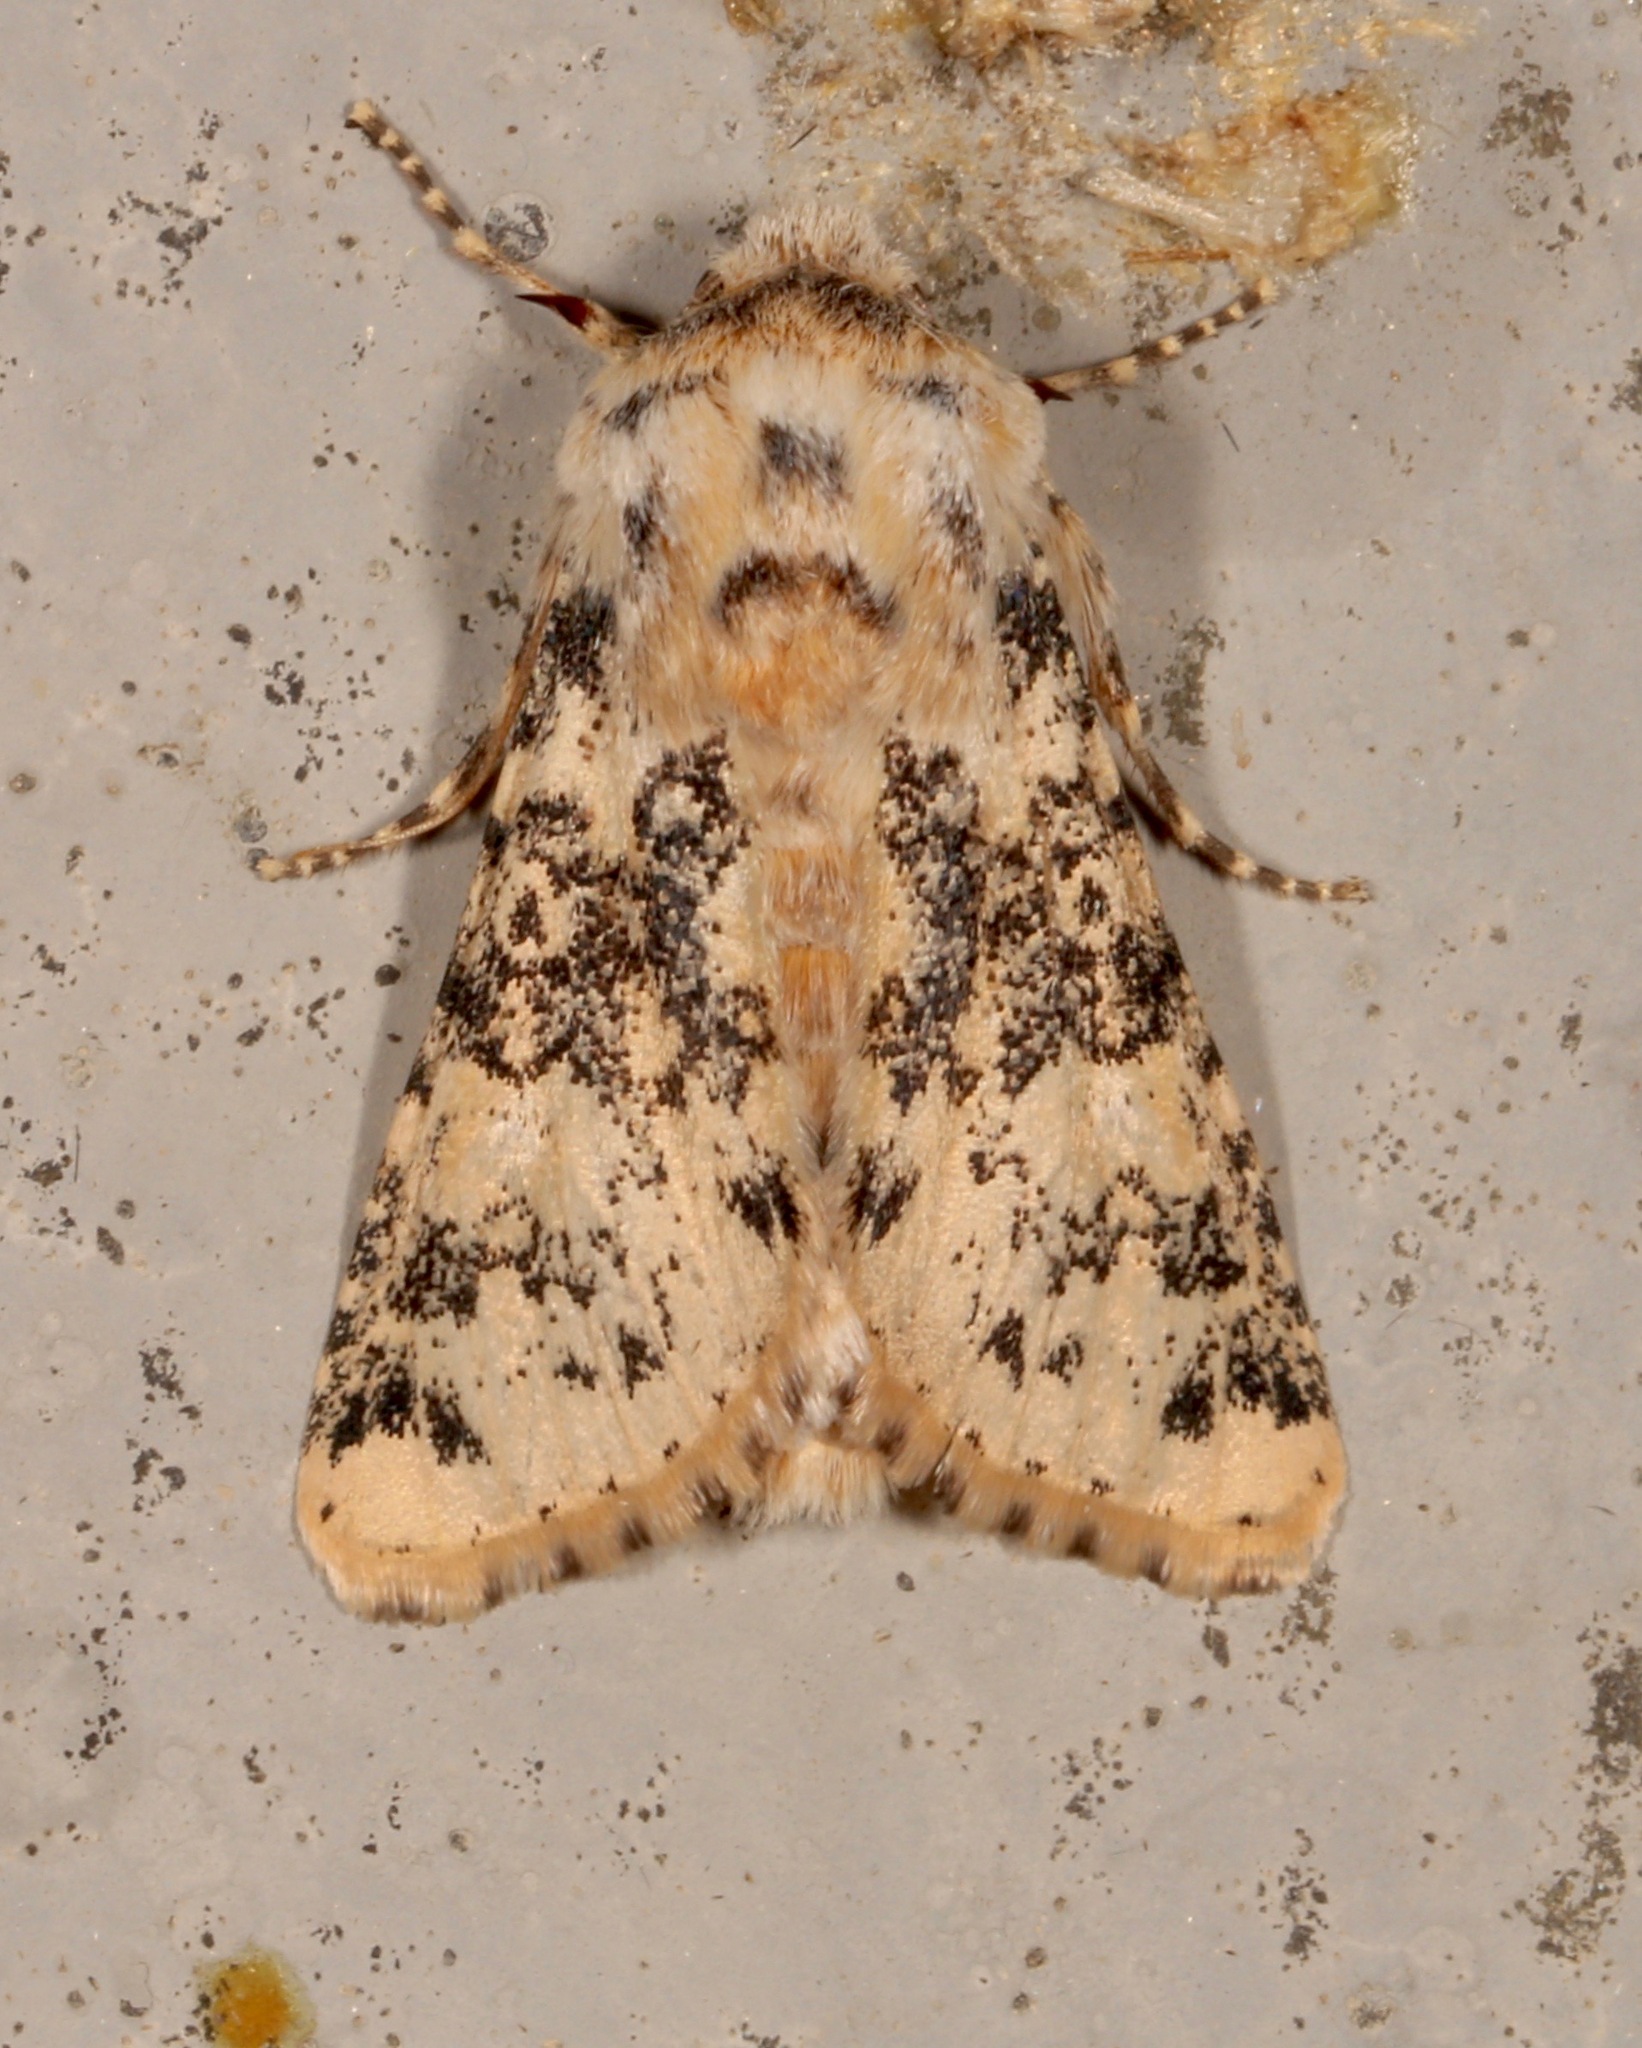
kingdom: Animalia
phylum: Arthropoda
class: Insecta
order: Lepidoptera
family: Noctuidae
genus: Unciella
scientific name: Unciella primula
